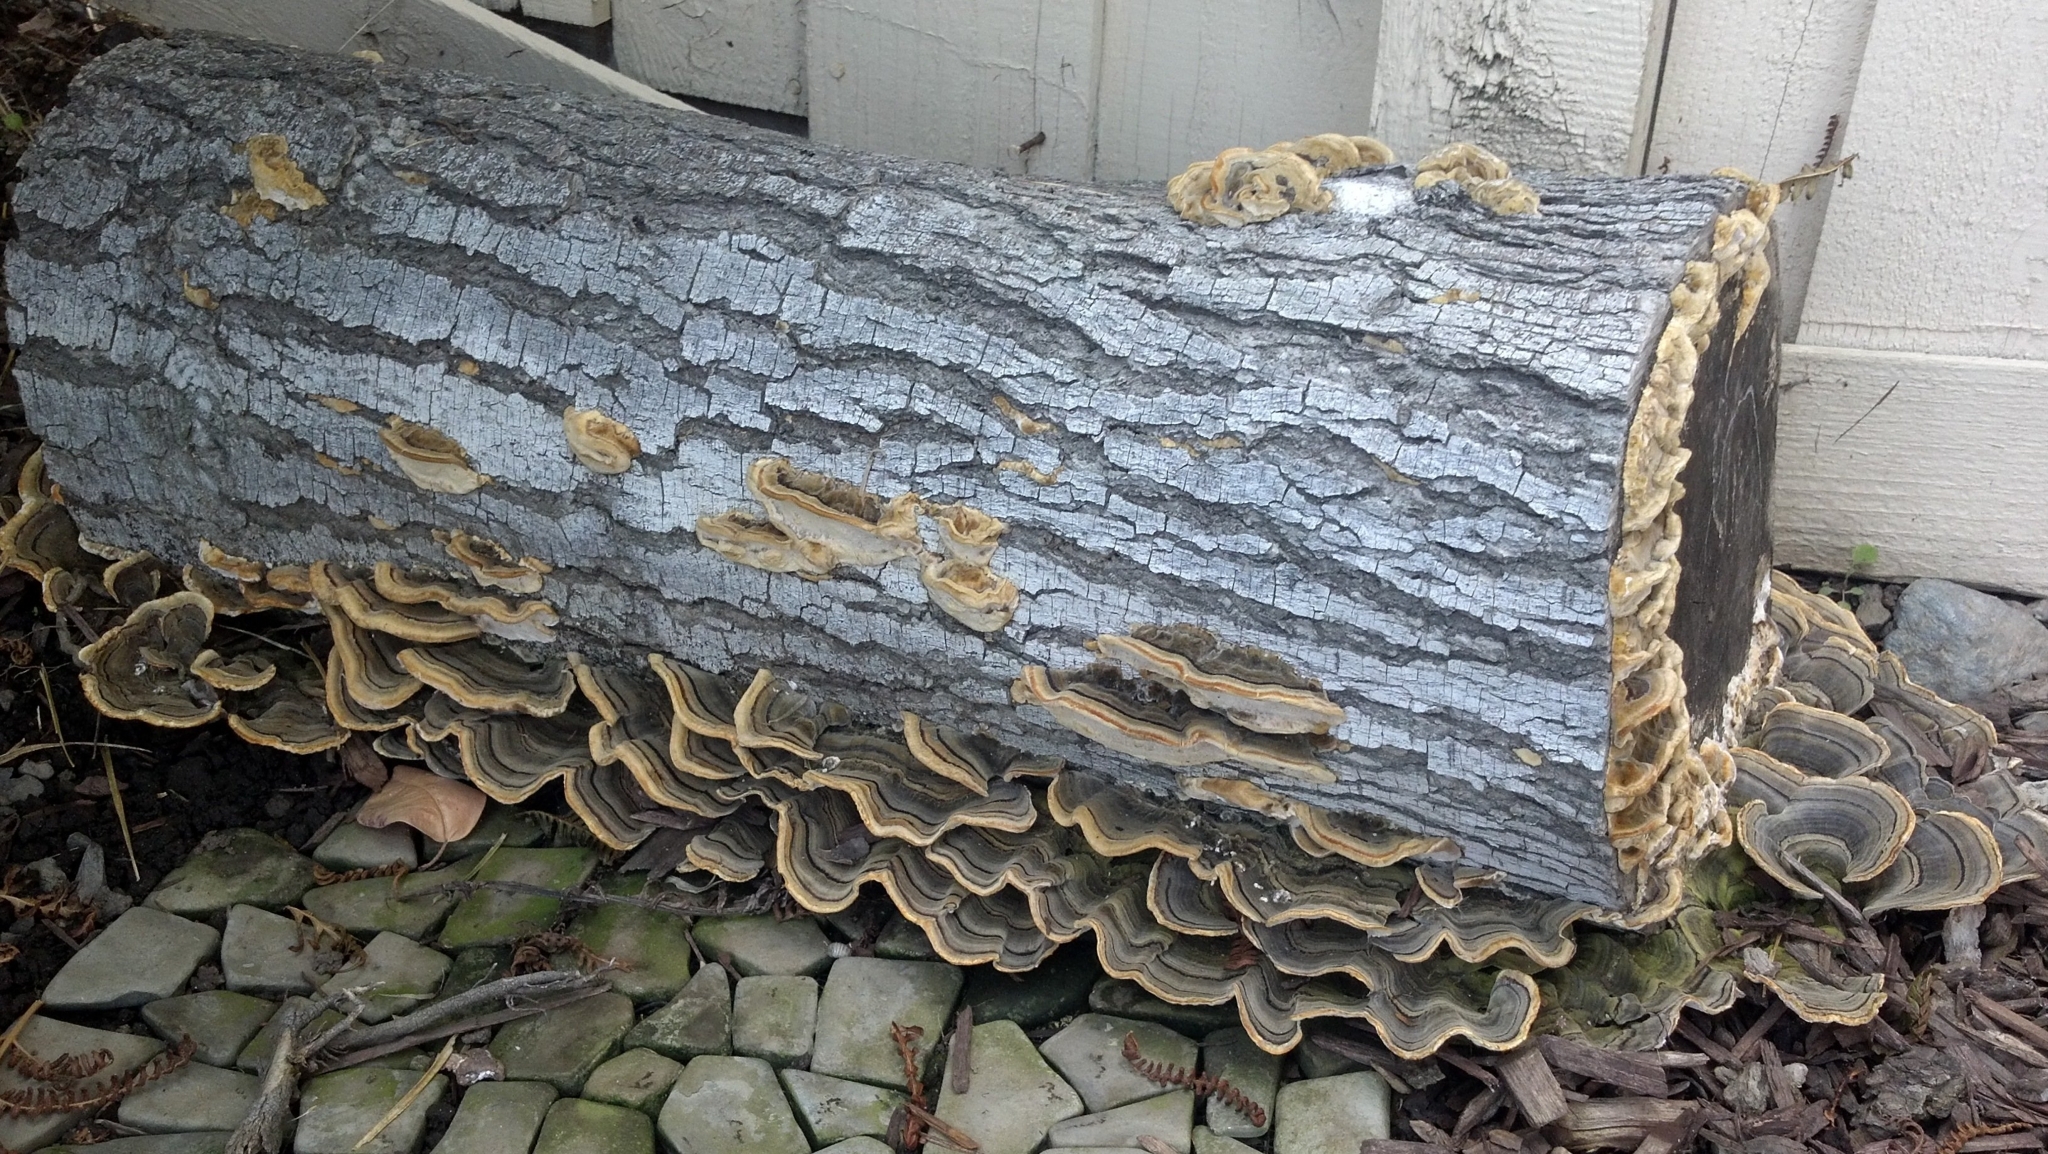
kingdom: Fungi
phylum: Basidiomycota
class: Agaricomycetes
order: Polyporales
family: Polyporaceae
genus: Trametes
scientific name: Trametes versicolor
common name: Turkeytail
